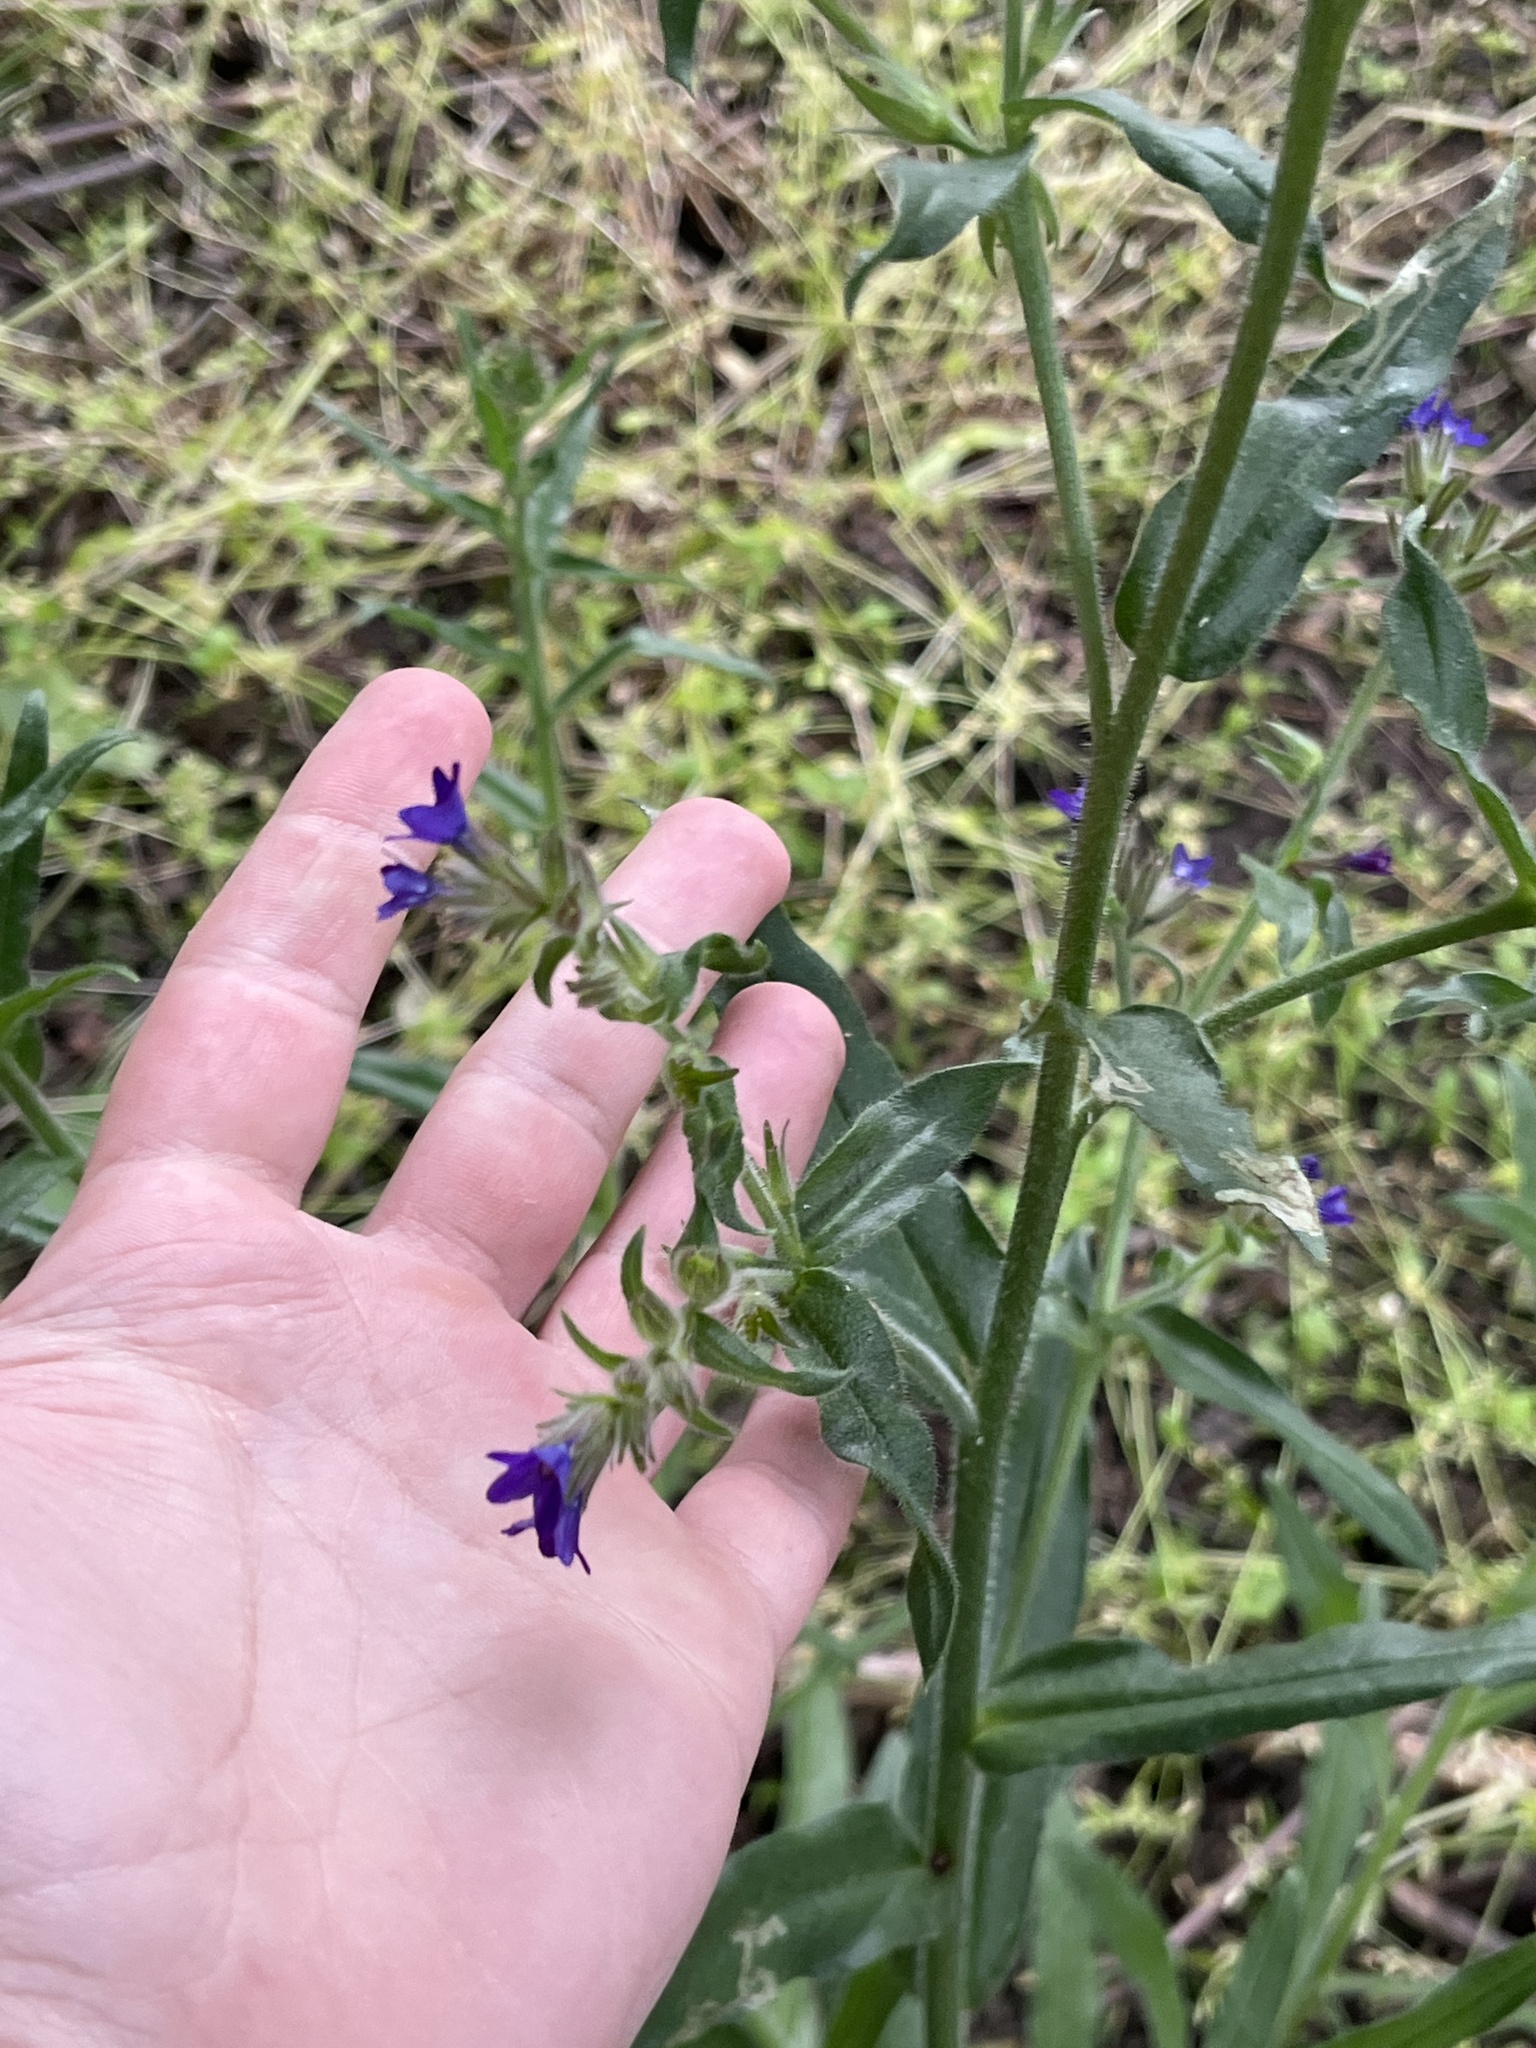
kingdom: Plantae
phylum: Tracheophyta
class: Magnoliopsida
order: Boraginales
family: Boraginaceae
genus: Anchusa
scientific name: Anchusa officinalis
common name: Alkanet
